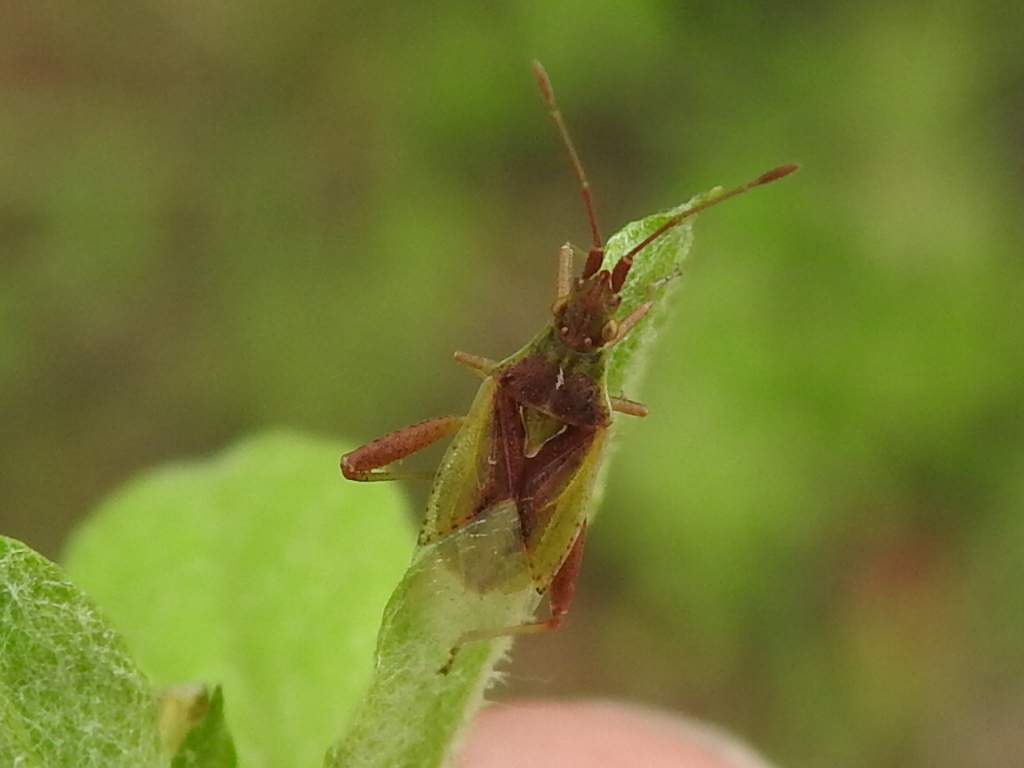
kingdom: Animalia
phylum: Arthropoda
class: Insecta
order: Hemiptera
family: Rhopalidae
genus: Harmostes
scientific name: Harmostes reflexulus
